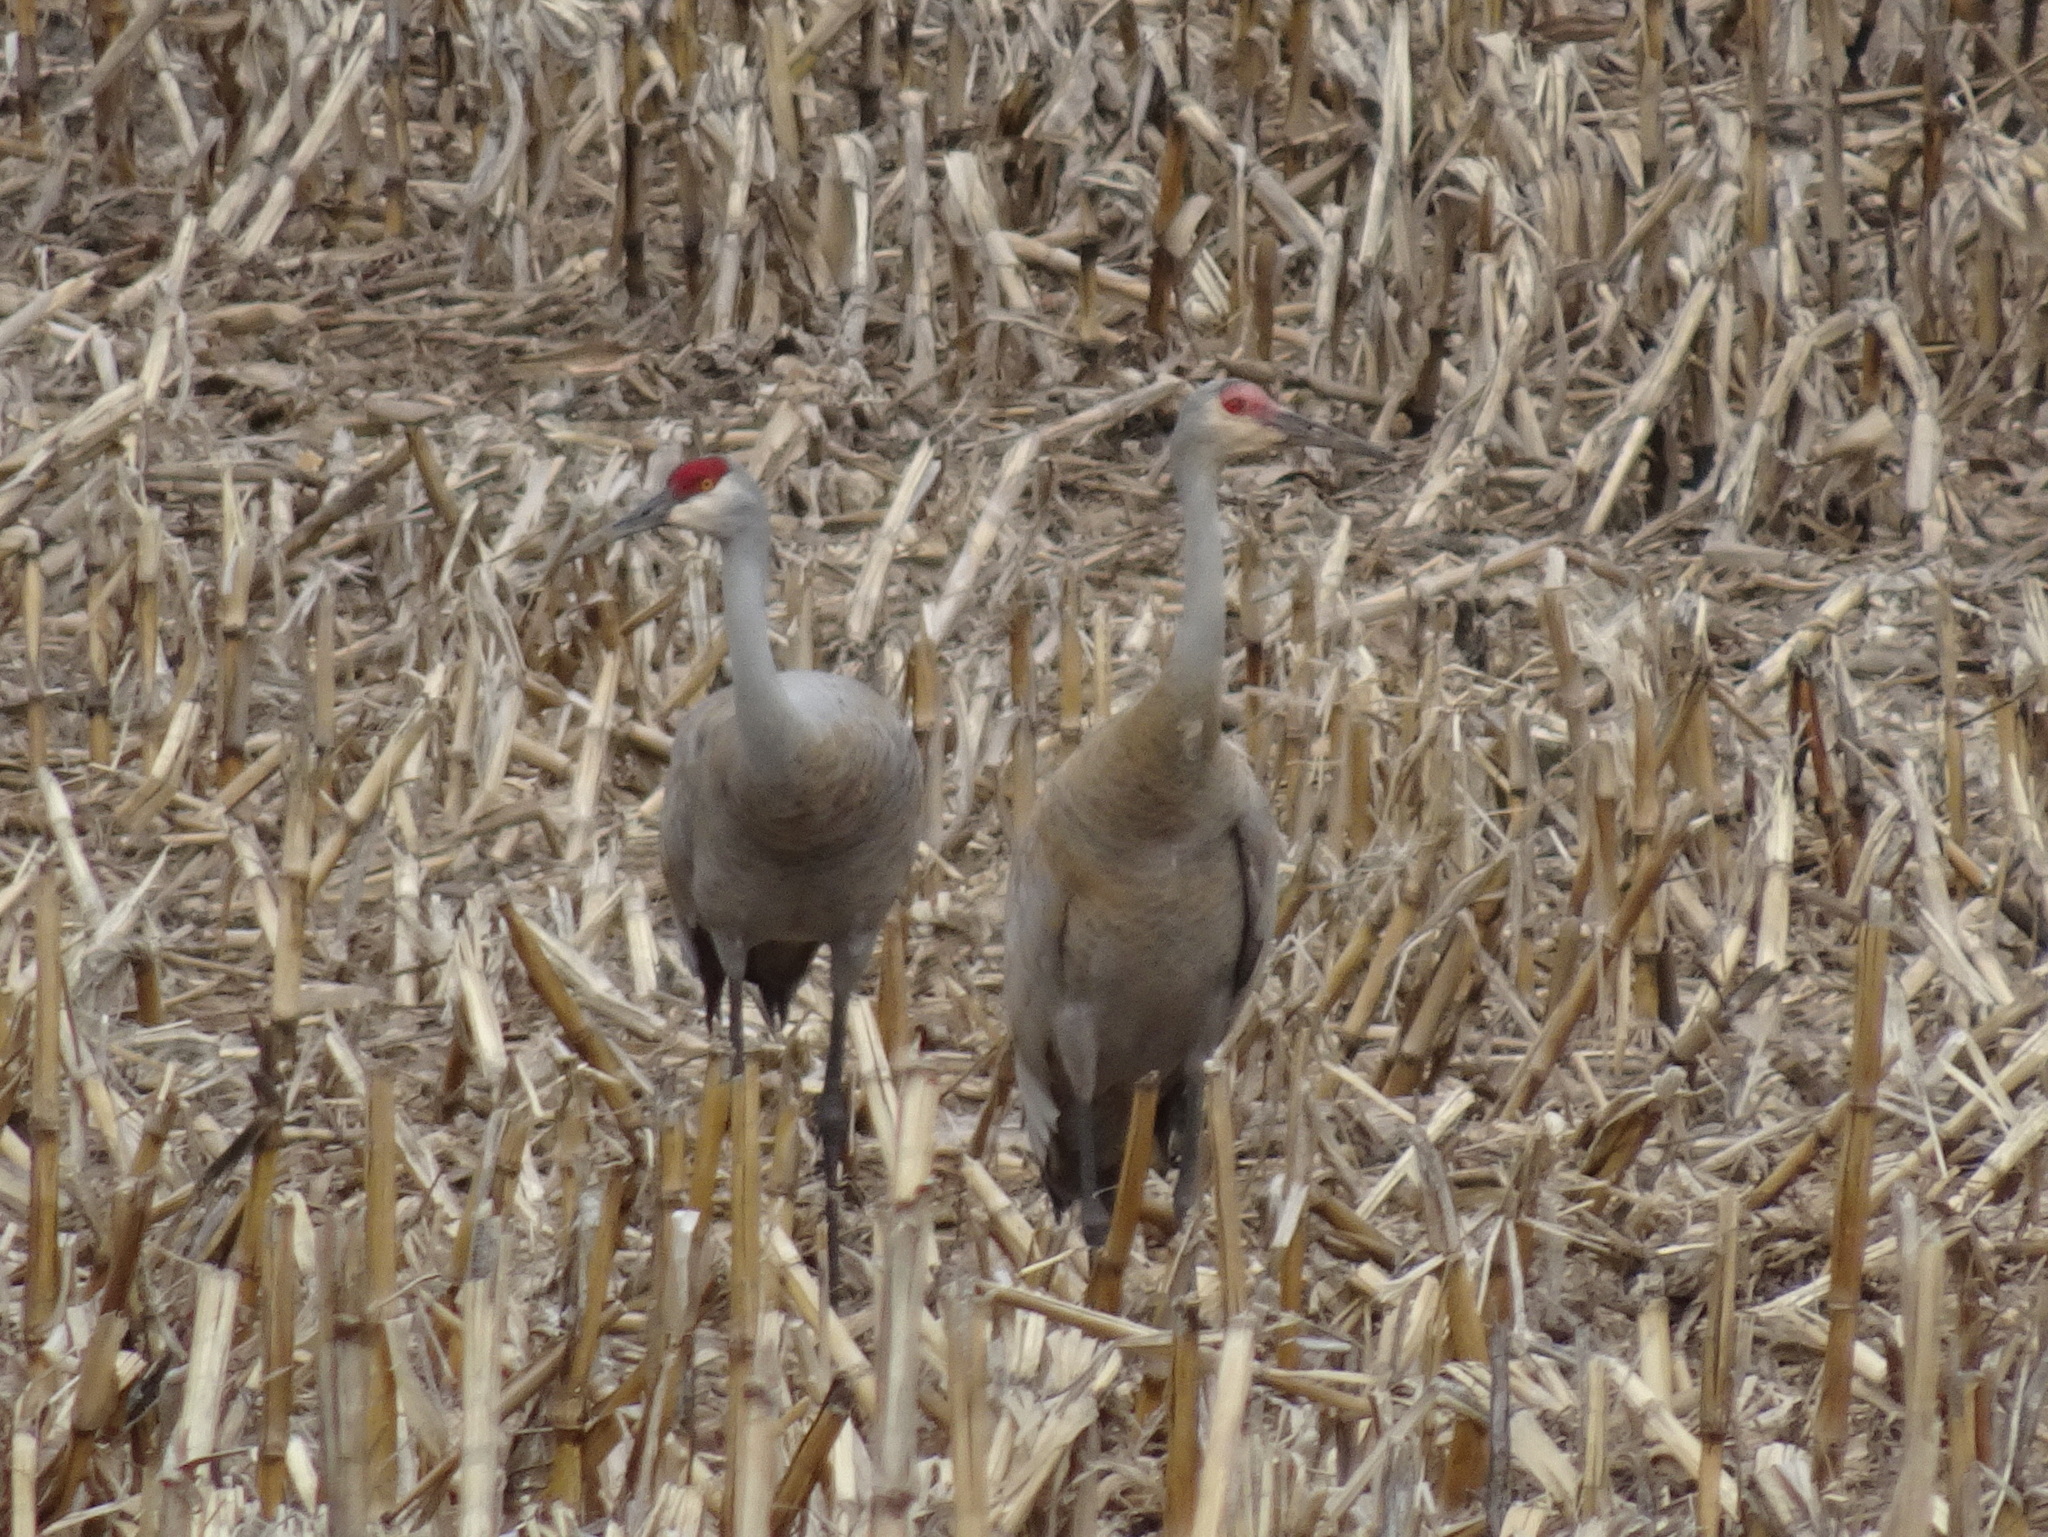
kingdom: Animalia
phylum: Chordata
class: Aves
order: Gruiformes
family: Gruidae
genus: Grus
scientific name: Grus canadensis
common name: Sandhill crane
